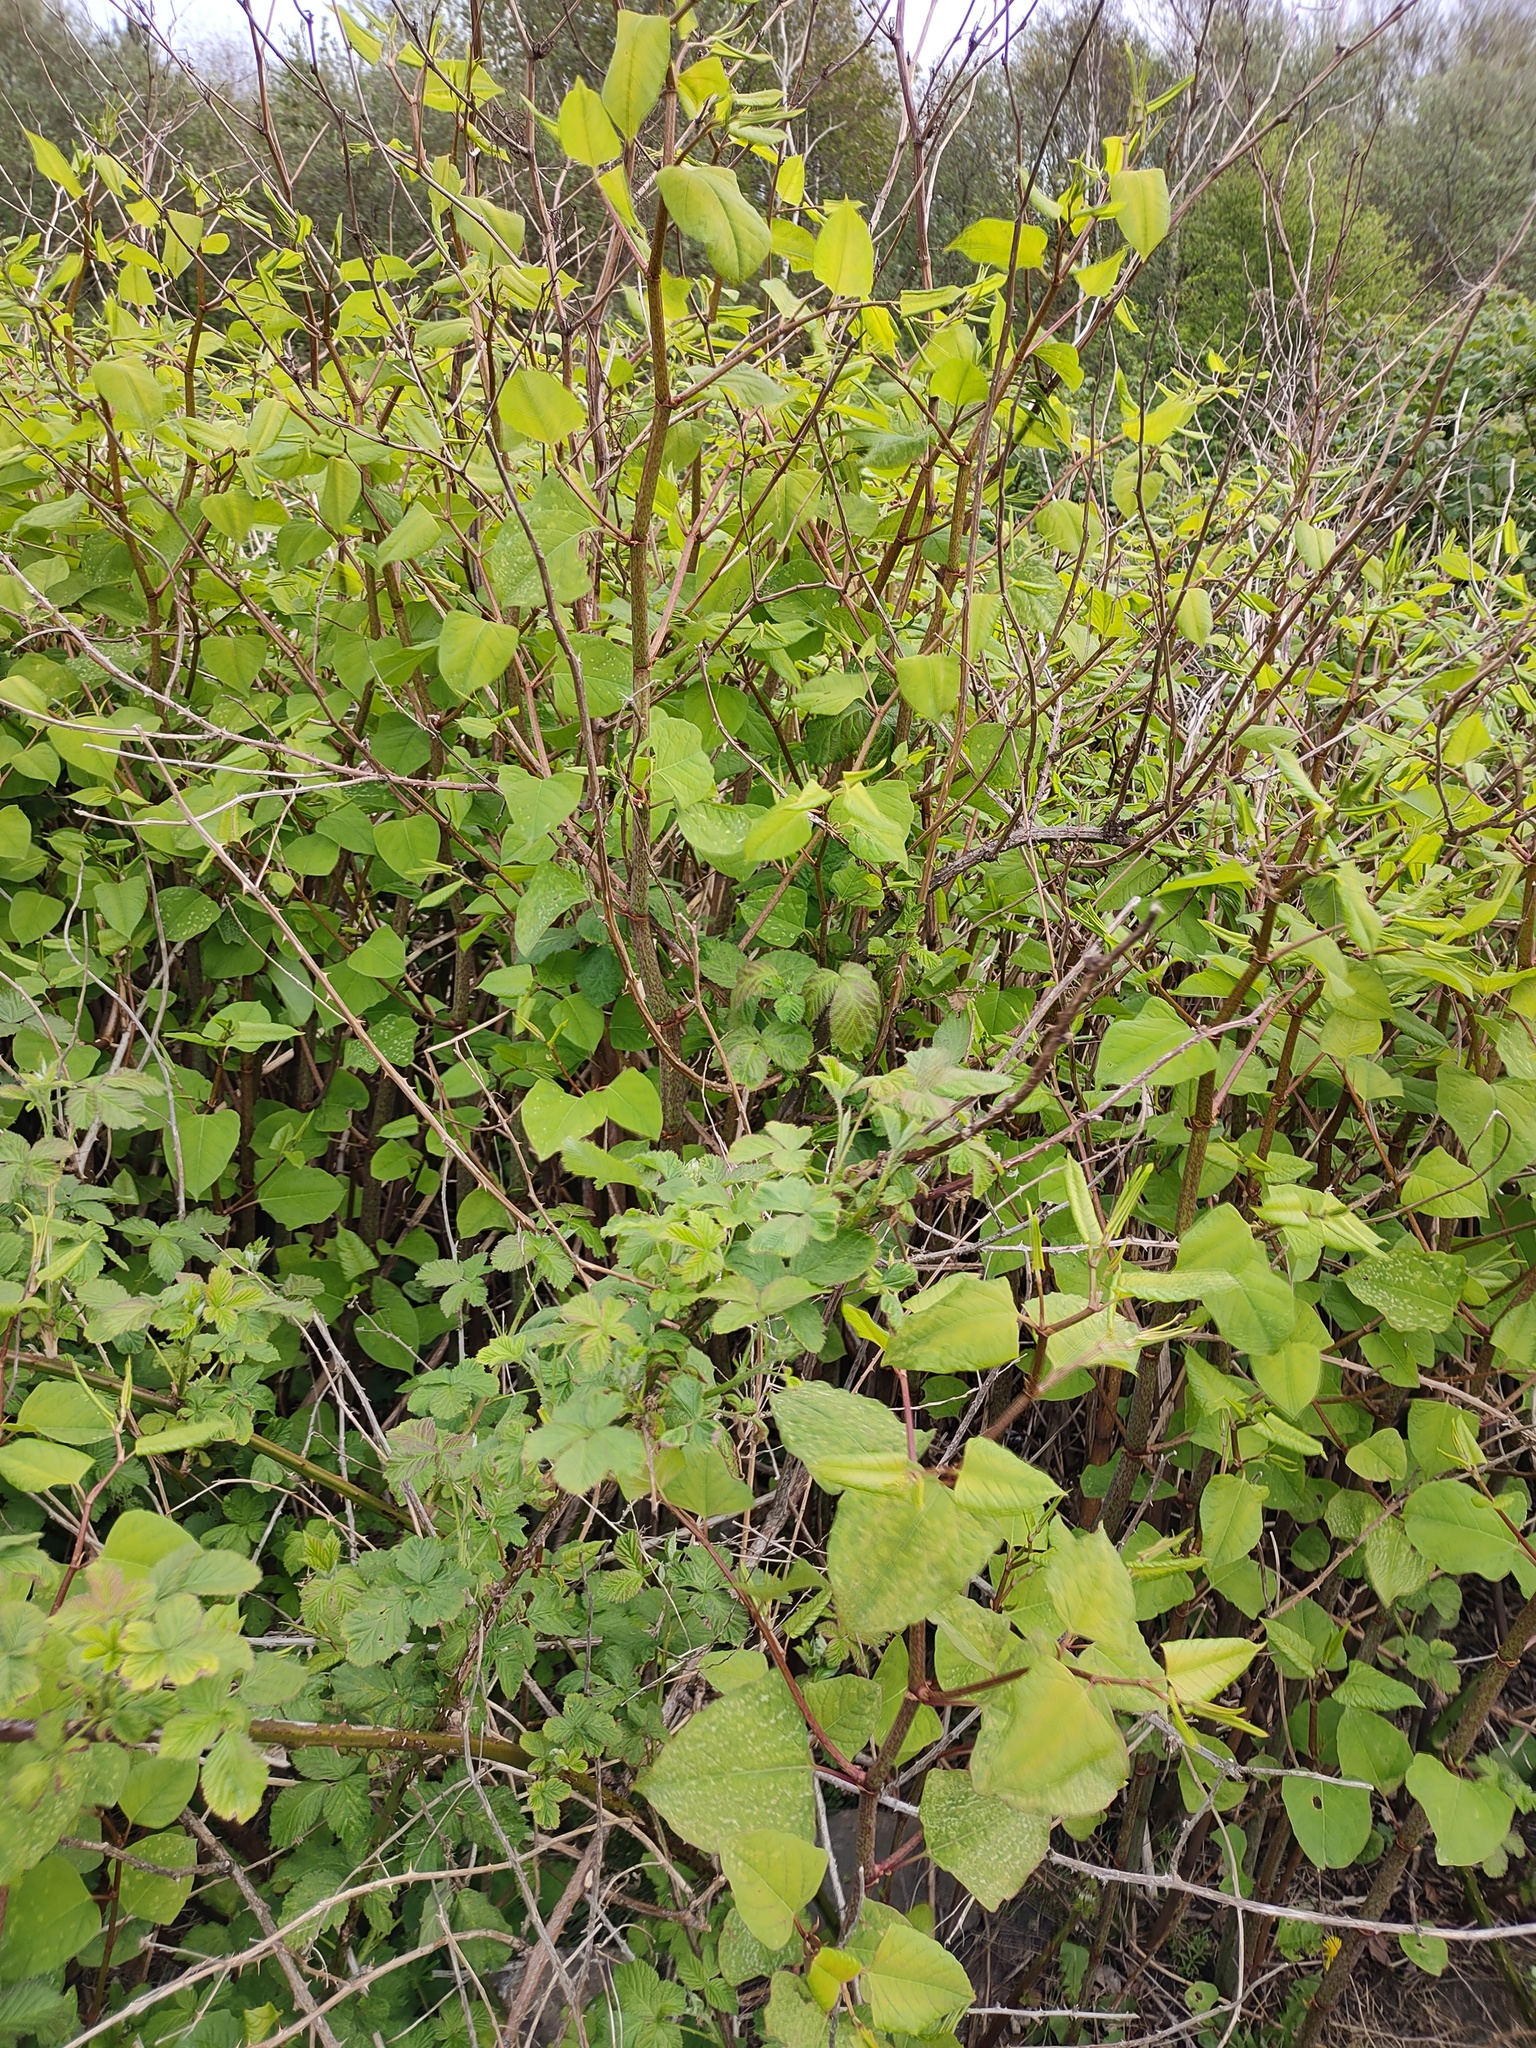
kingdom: Plantae
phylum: Tracheophyta
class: Magnoliopsida
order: Caryophyllales
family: Polygonaceae
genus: Reynoutria
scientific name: Reynoutria japonica
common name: Japanese knotweed
